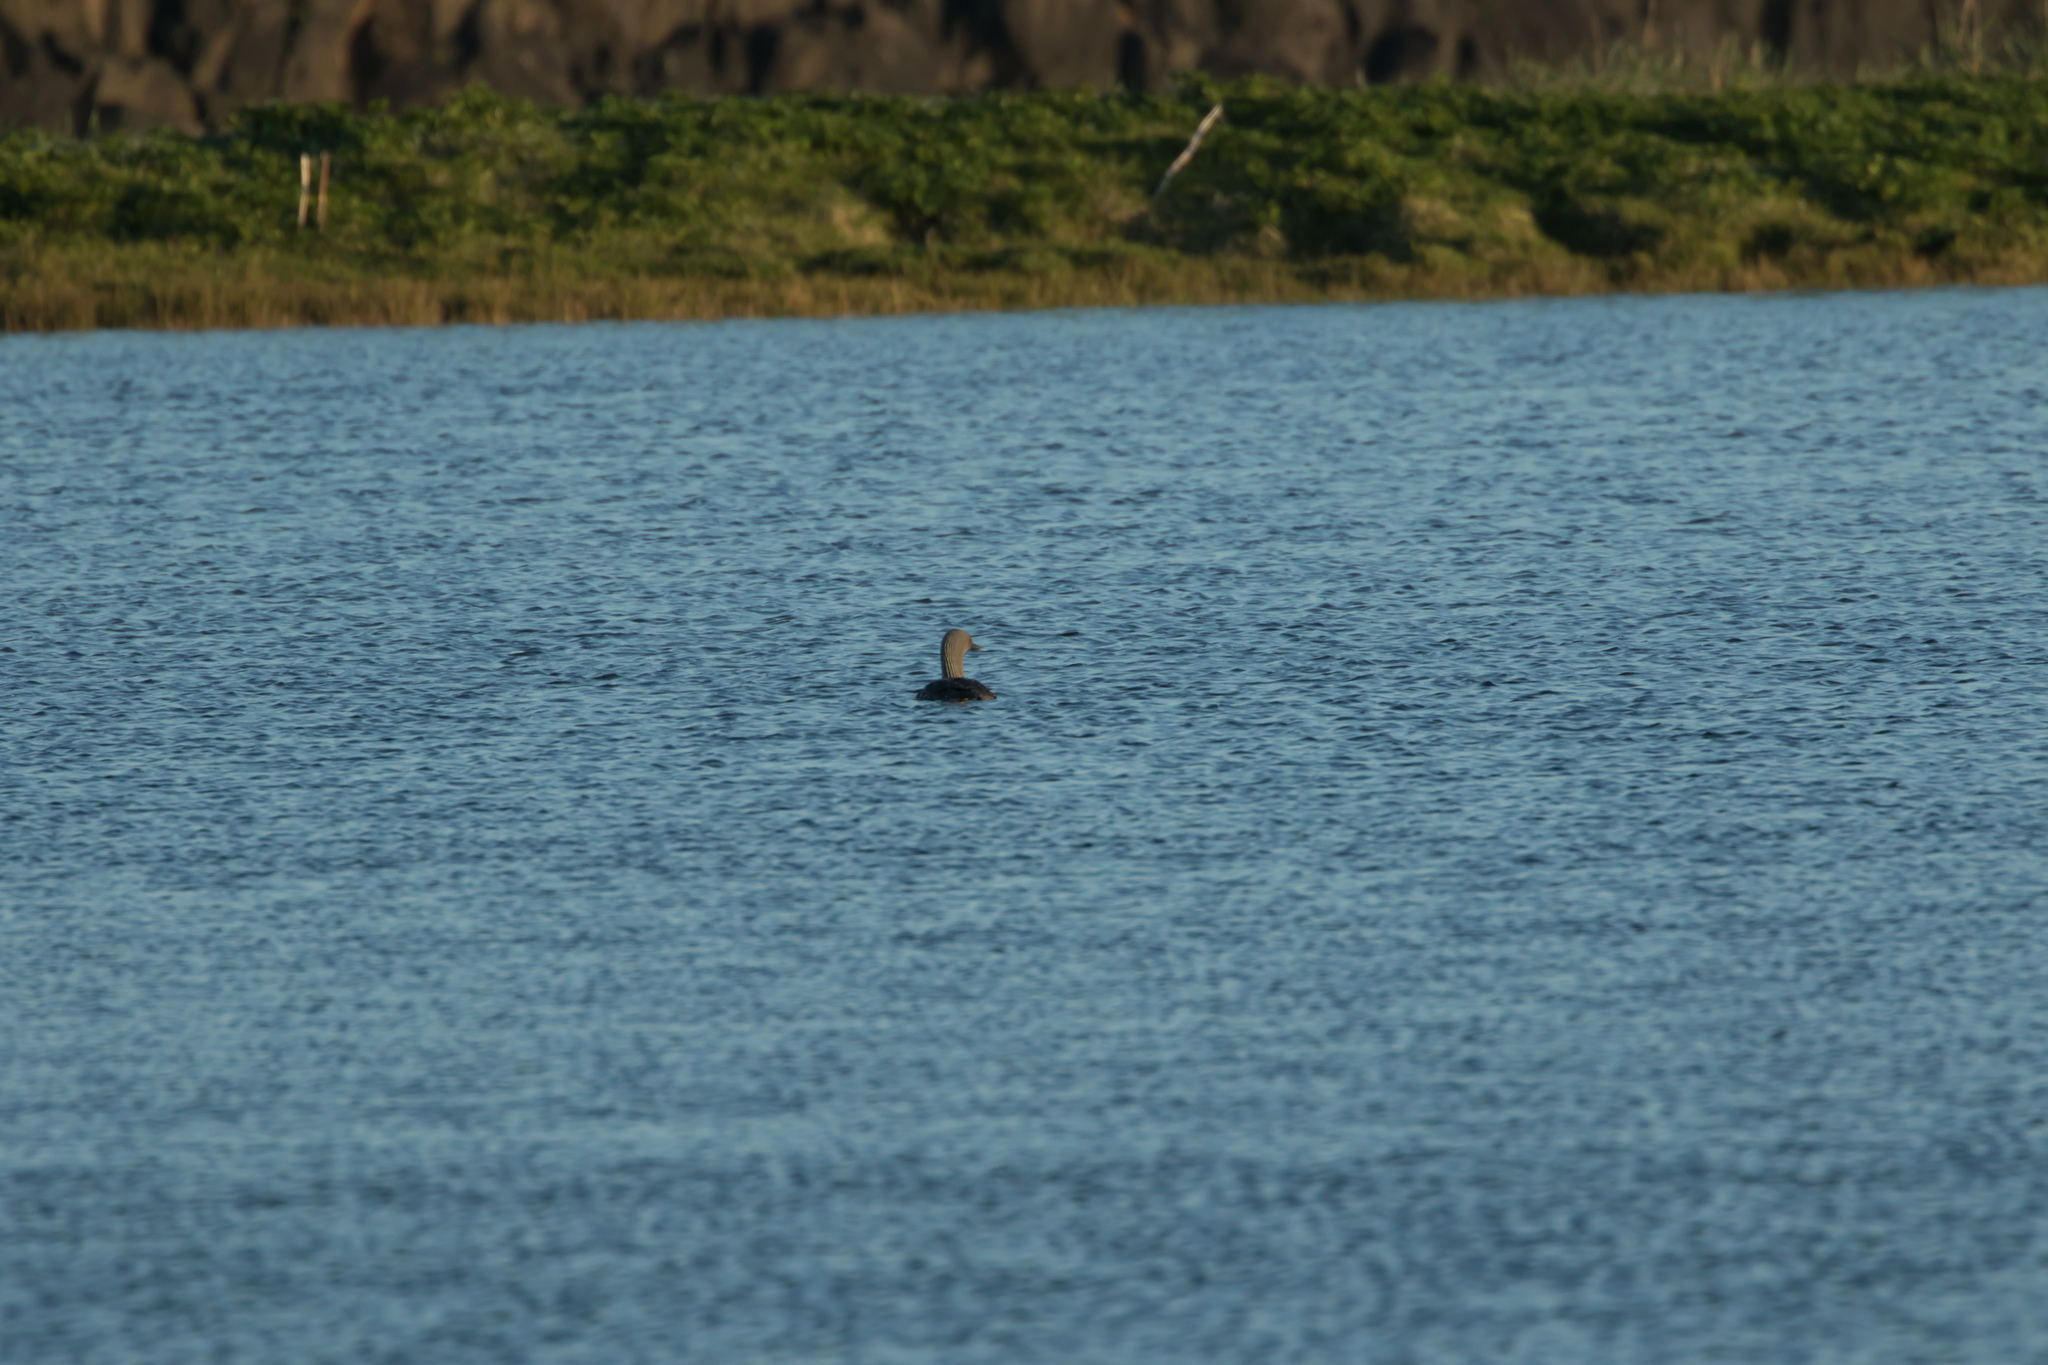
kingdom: Animalia
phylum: Chordata
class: Aves
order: Gaviiformes
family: Gaviidae
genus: Gavia
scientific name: Gavia stellata
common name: Red-throated loon
